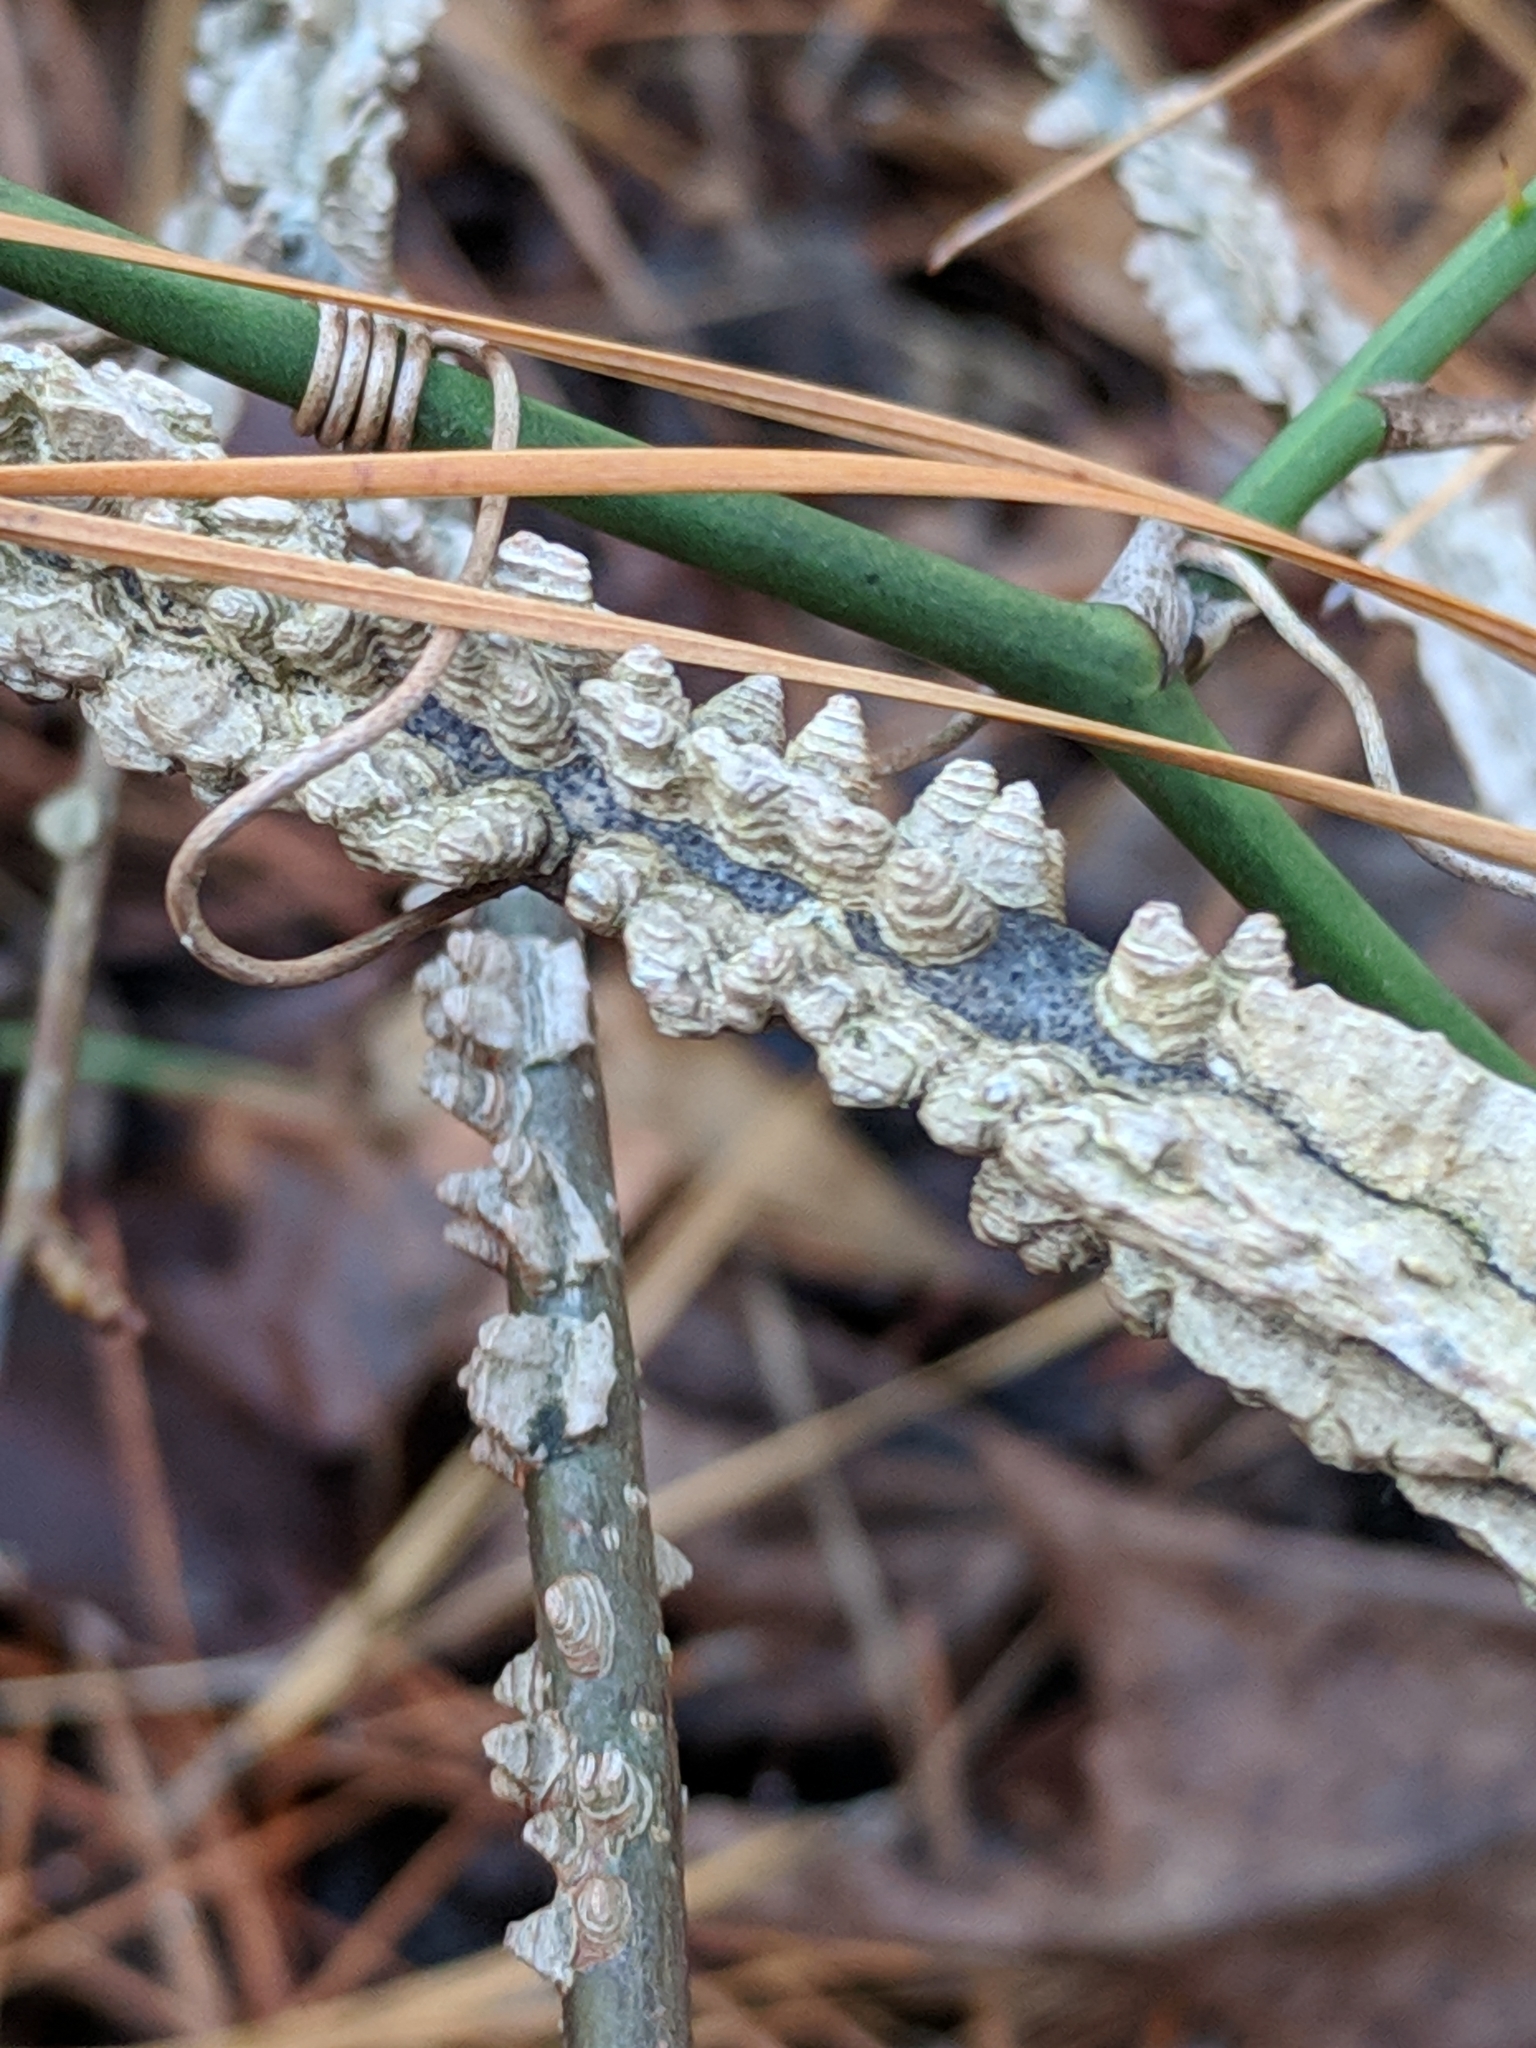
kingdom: Plantae
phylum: Tracheophyta
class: Magnoliopsida
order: Saxifragales
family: Altingiaceae
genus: Liquidambar
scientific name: Liquidambar styraciflua
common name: Sweet gum
